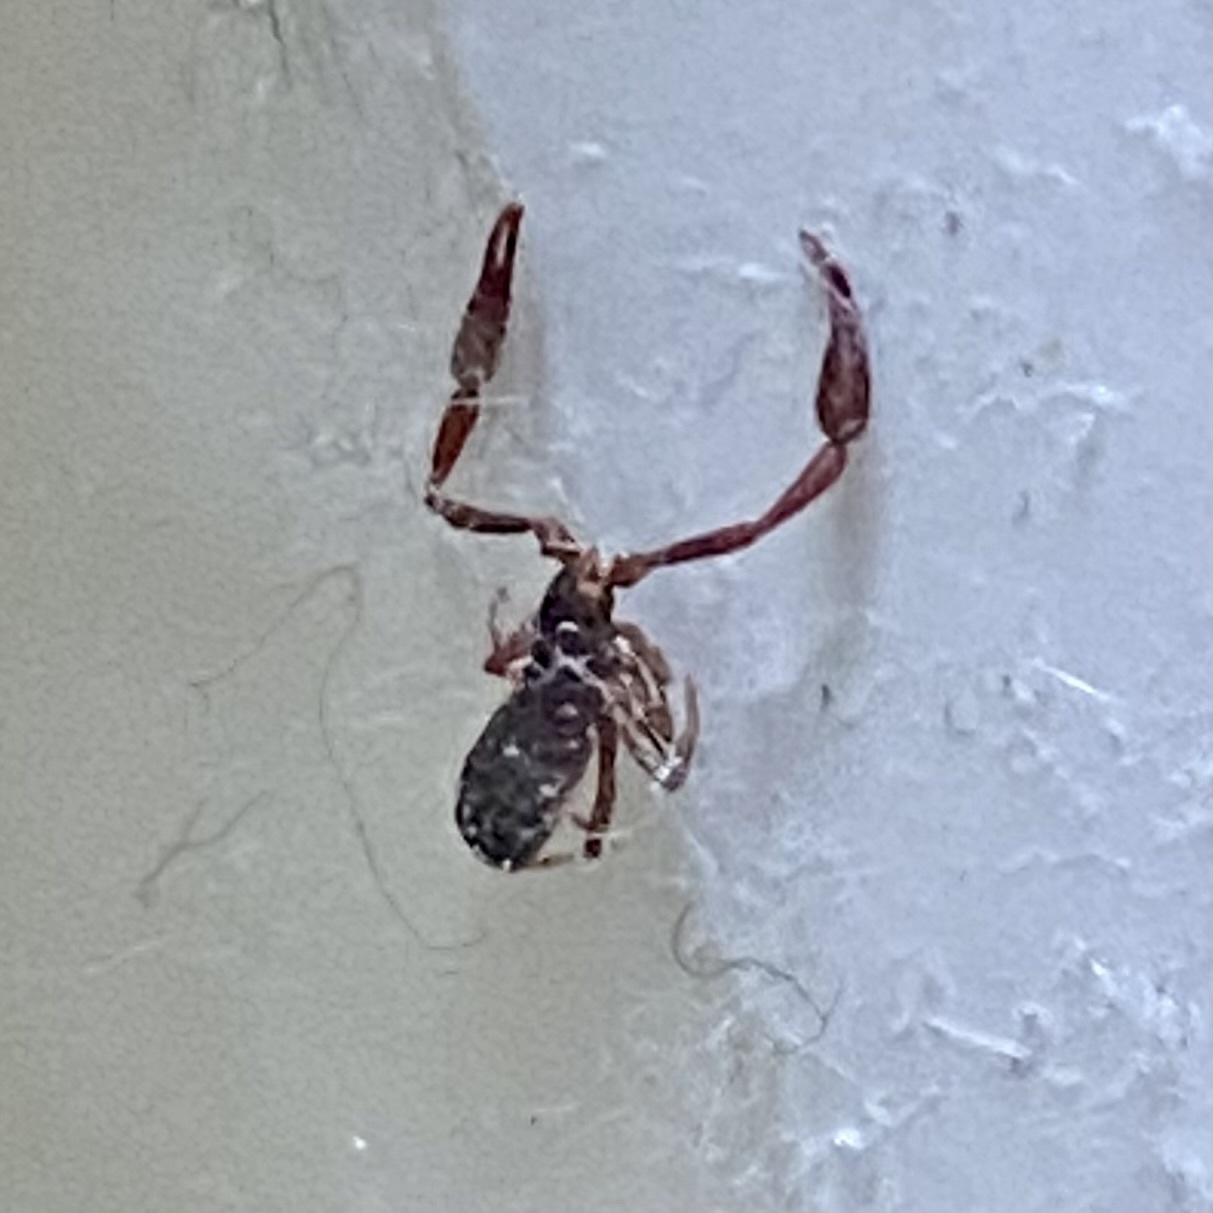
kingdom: Animalia
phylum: Arthropoda
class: Arachnida
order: Pseudoscorpiones
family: Cheliferidae
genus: Chelifer
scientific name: Chelifer cancroides
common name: House false-scorpion
